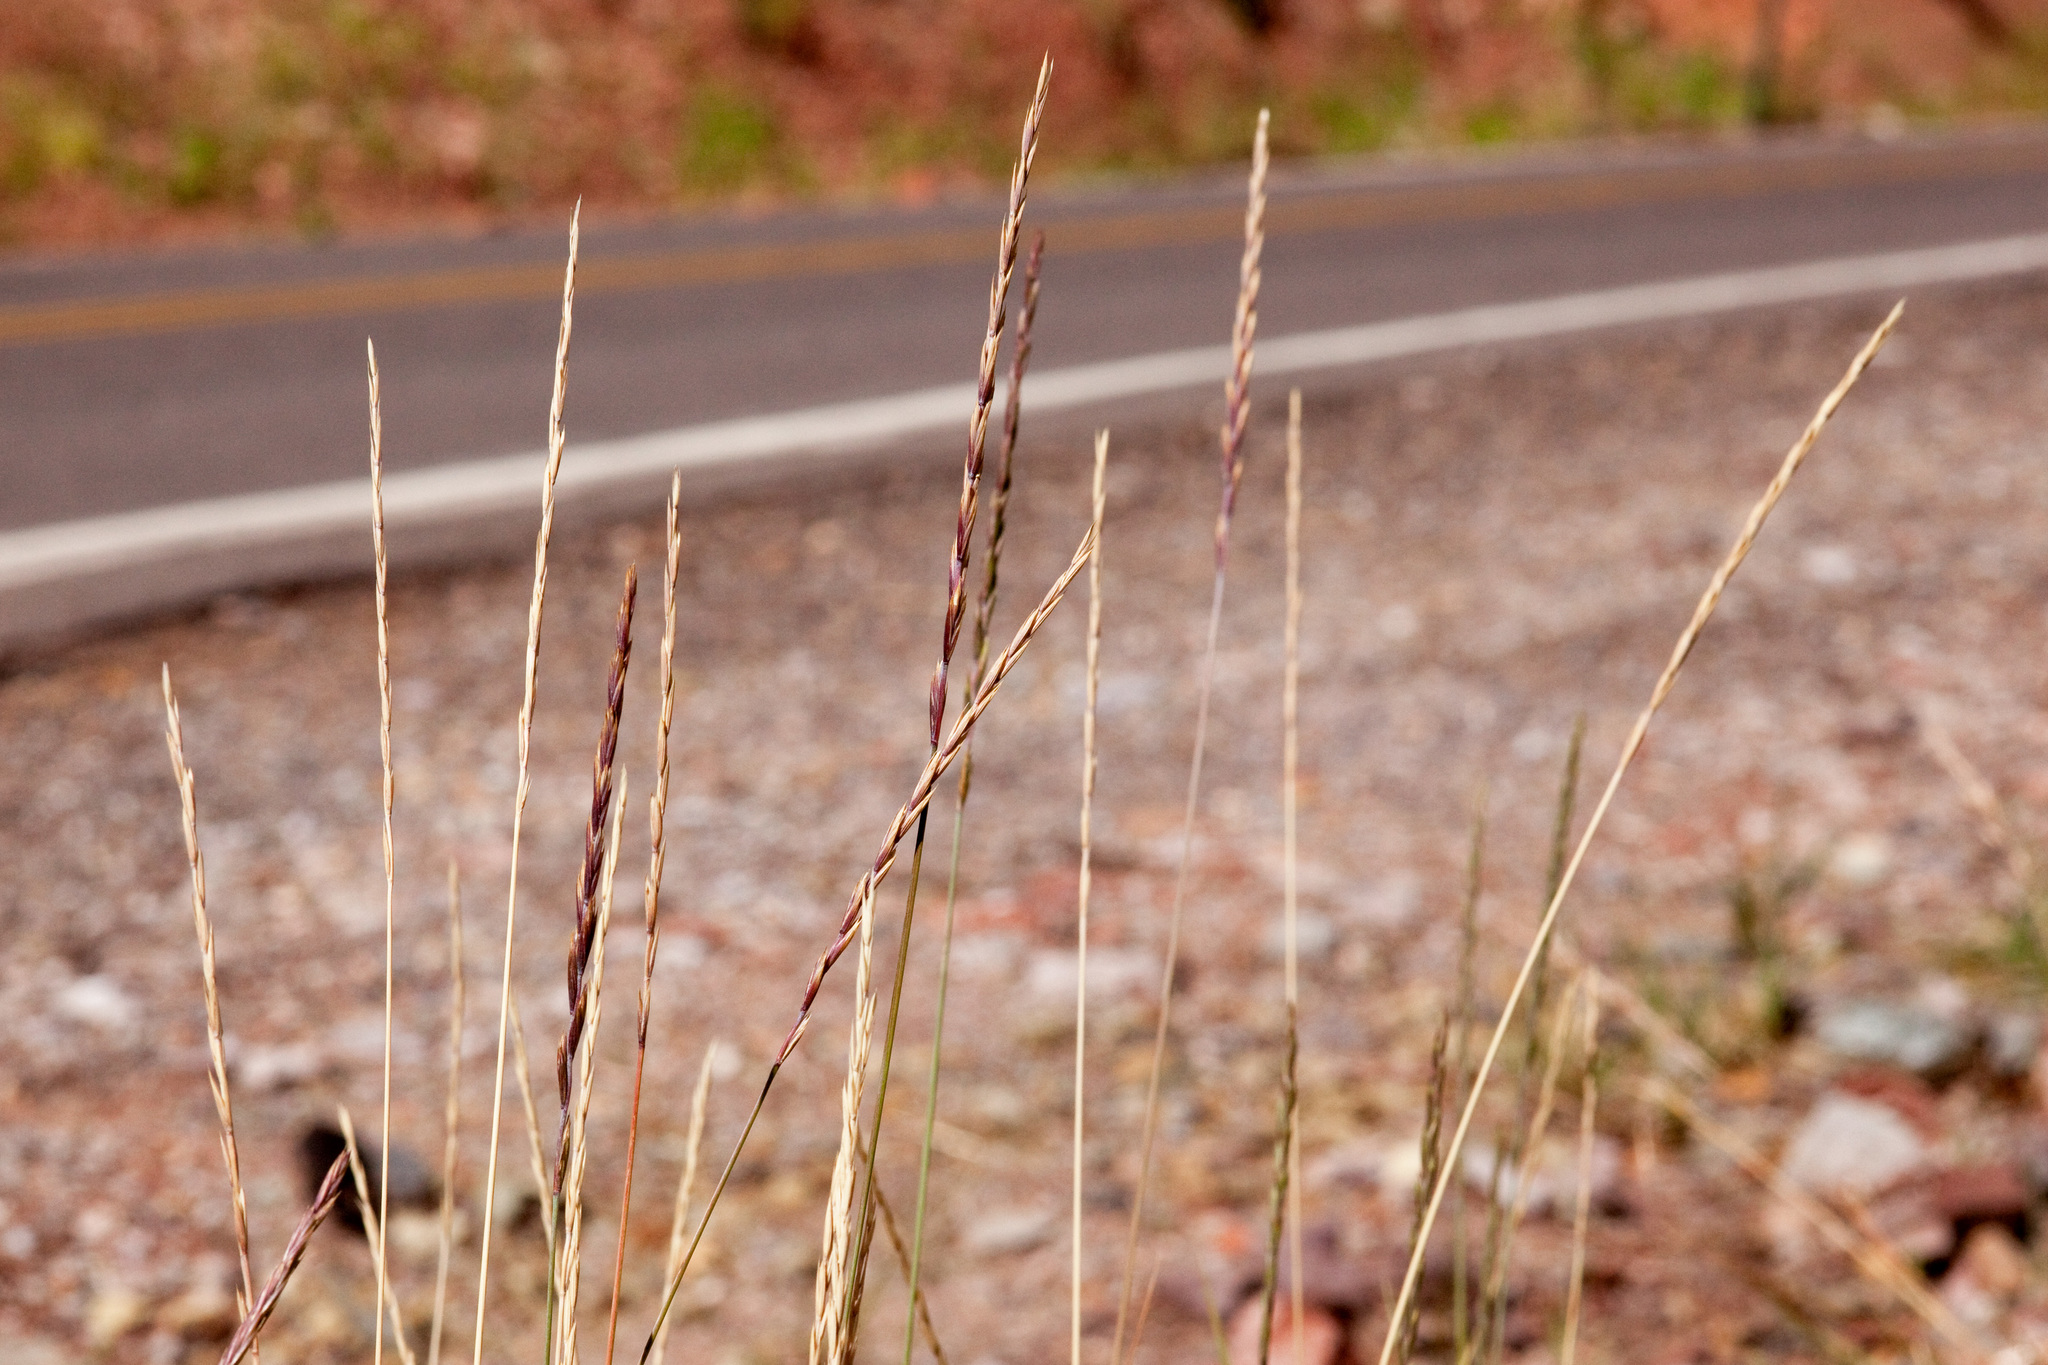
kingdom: Plantae
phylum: Tracheophyta
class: Liliopsida
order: Poales
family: Poaceae
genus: Elymus
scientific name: Elymus violaceus
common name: Arctic wheatgrass
